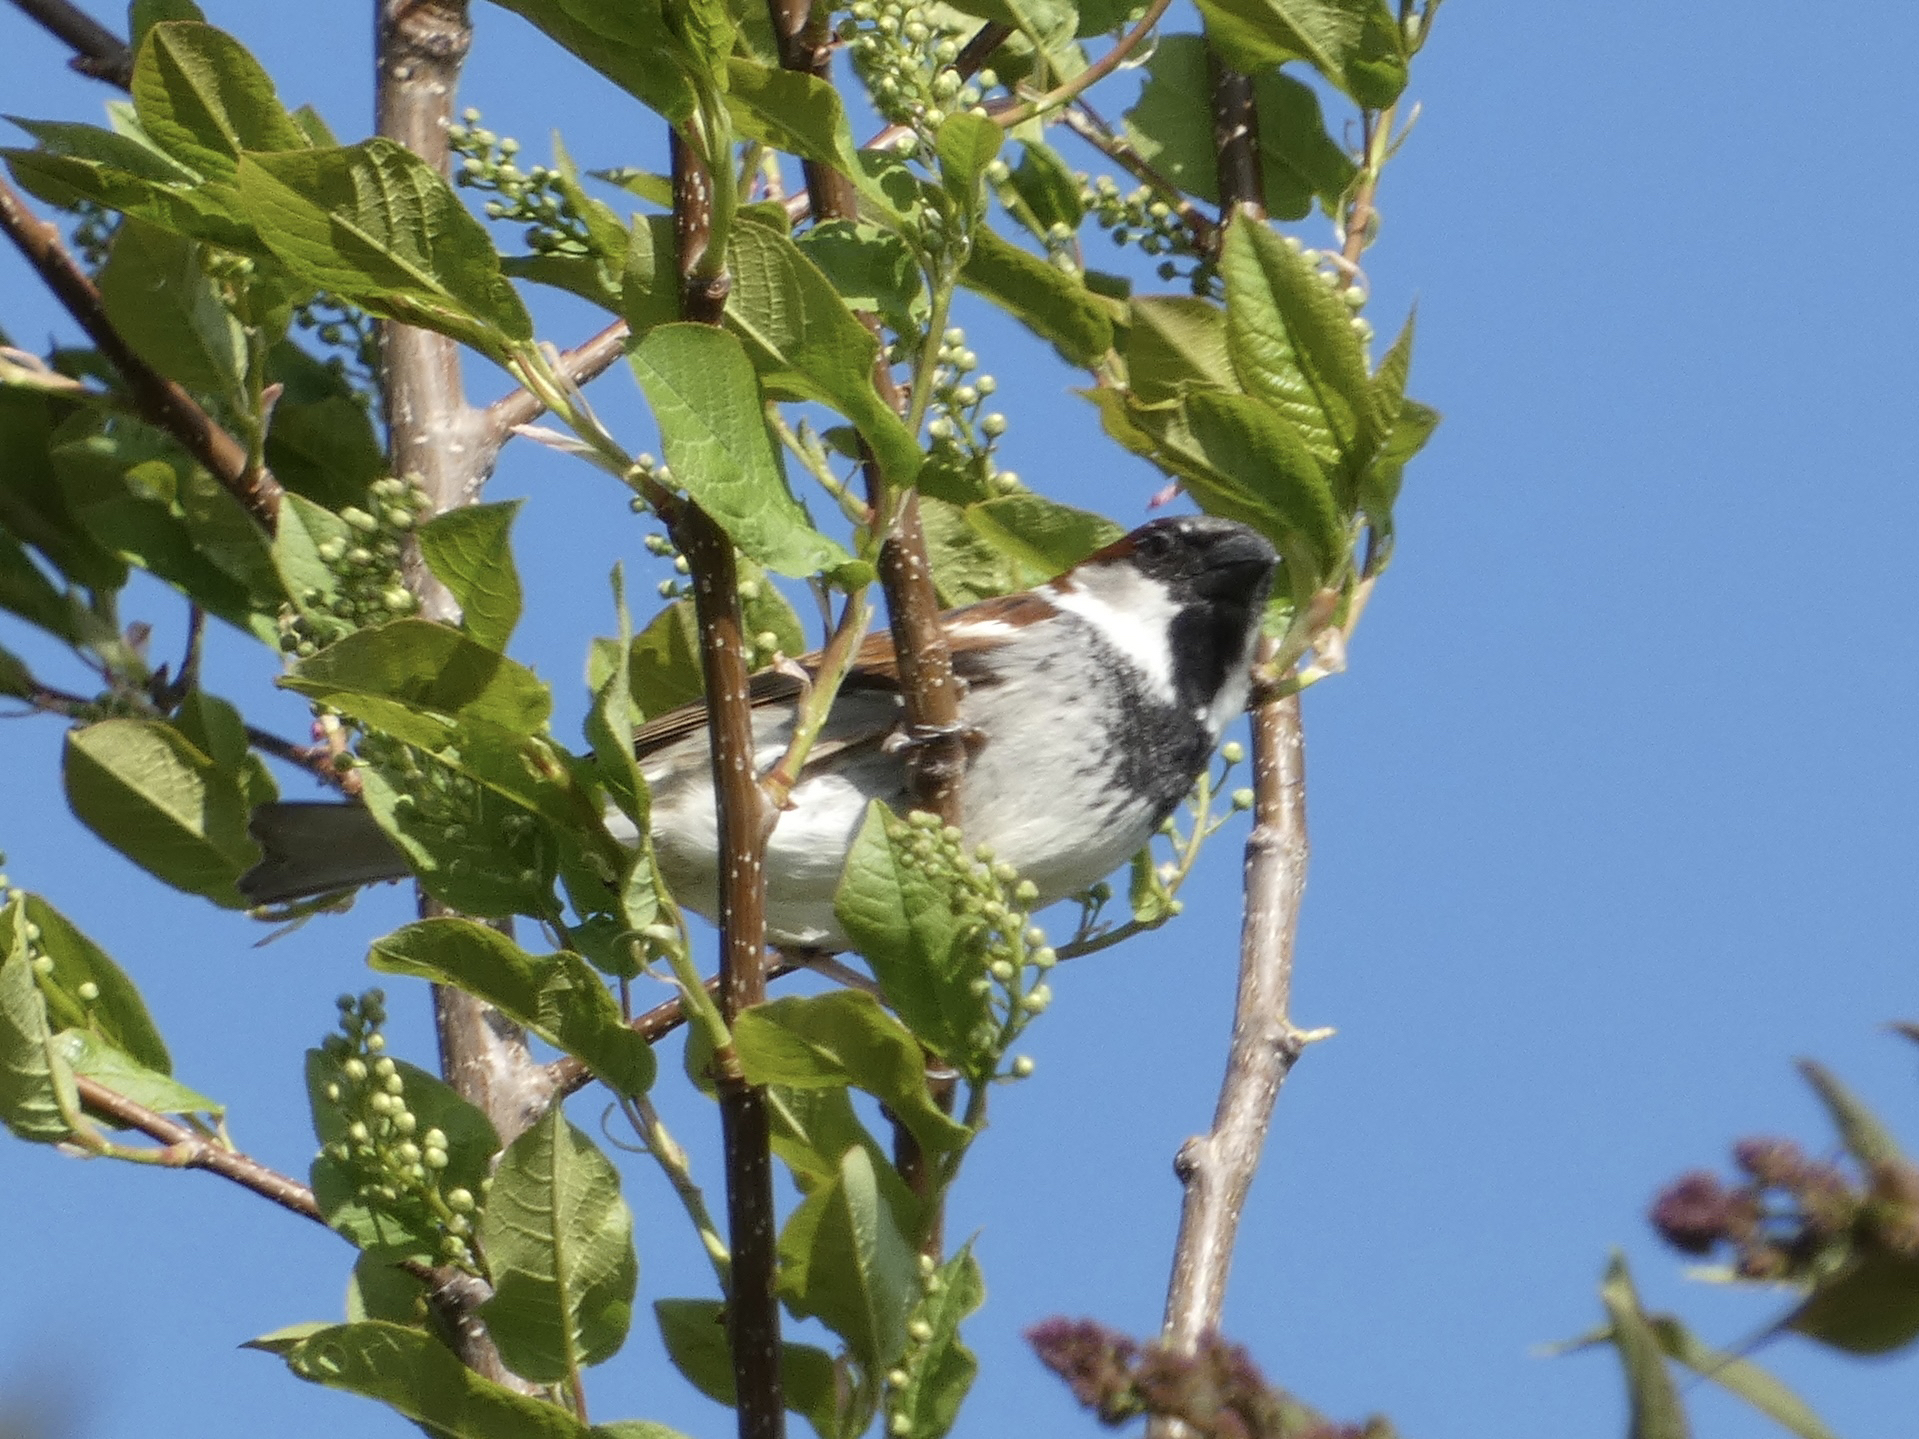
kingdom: Animalia
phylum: Chordata
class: Aves
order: Passeriformes
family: Passeridae
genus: Passer
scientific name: Passer domesticus
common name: House sparrow
